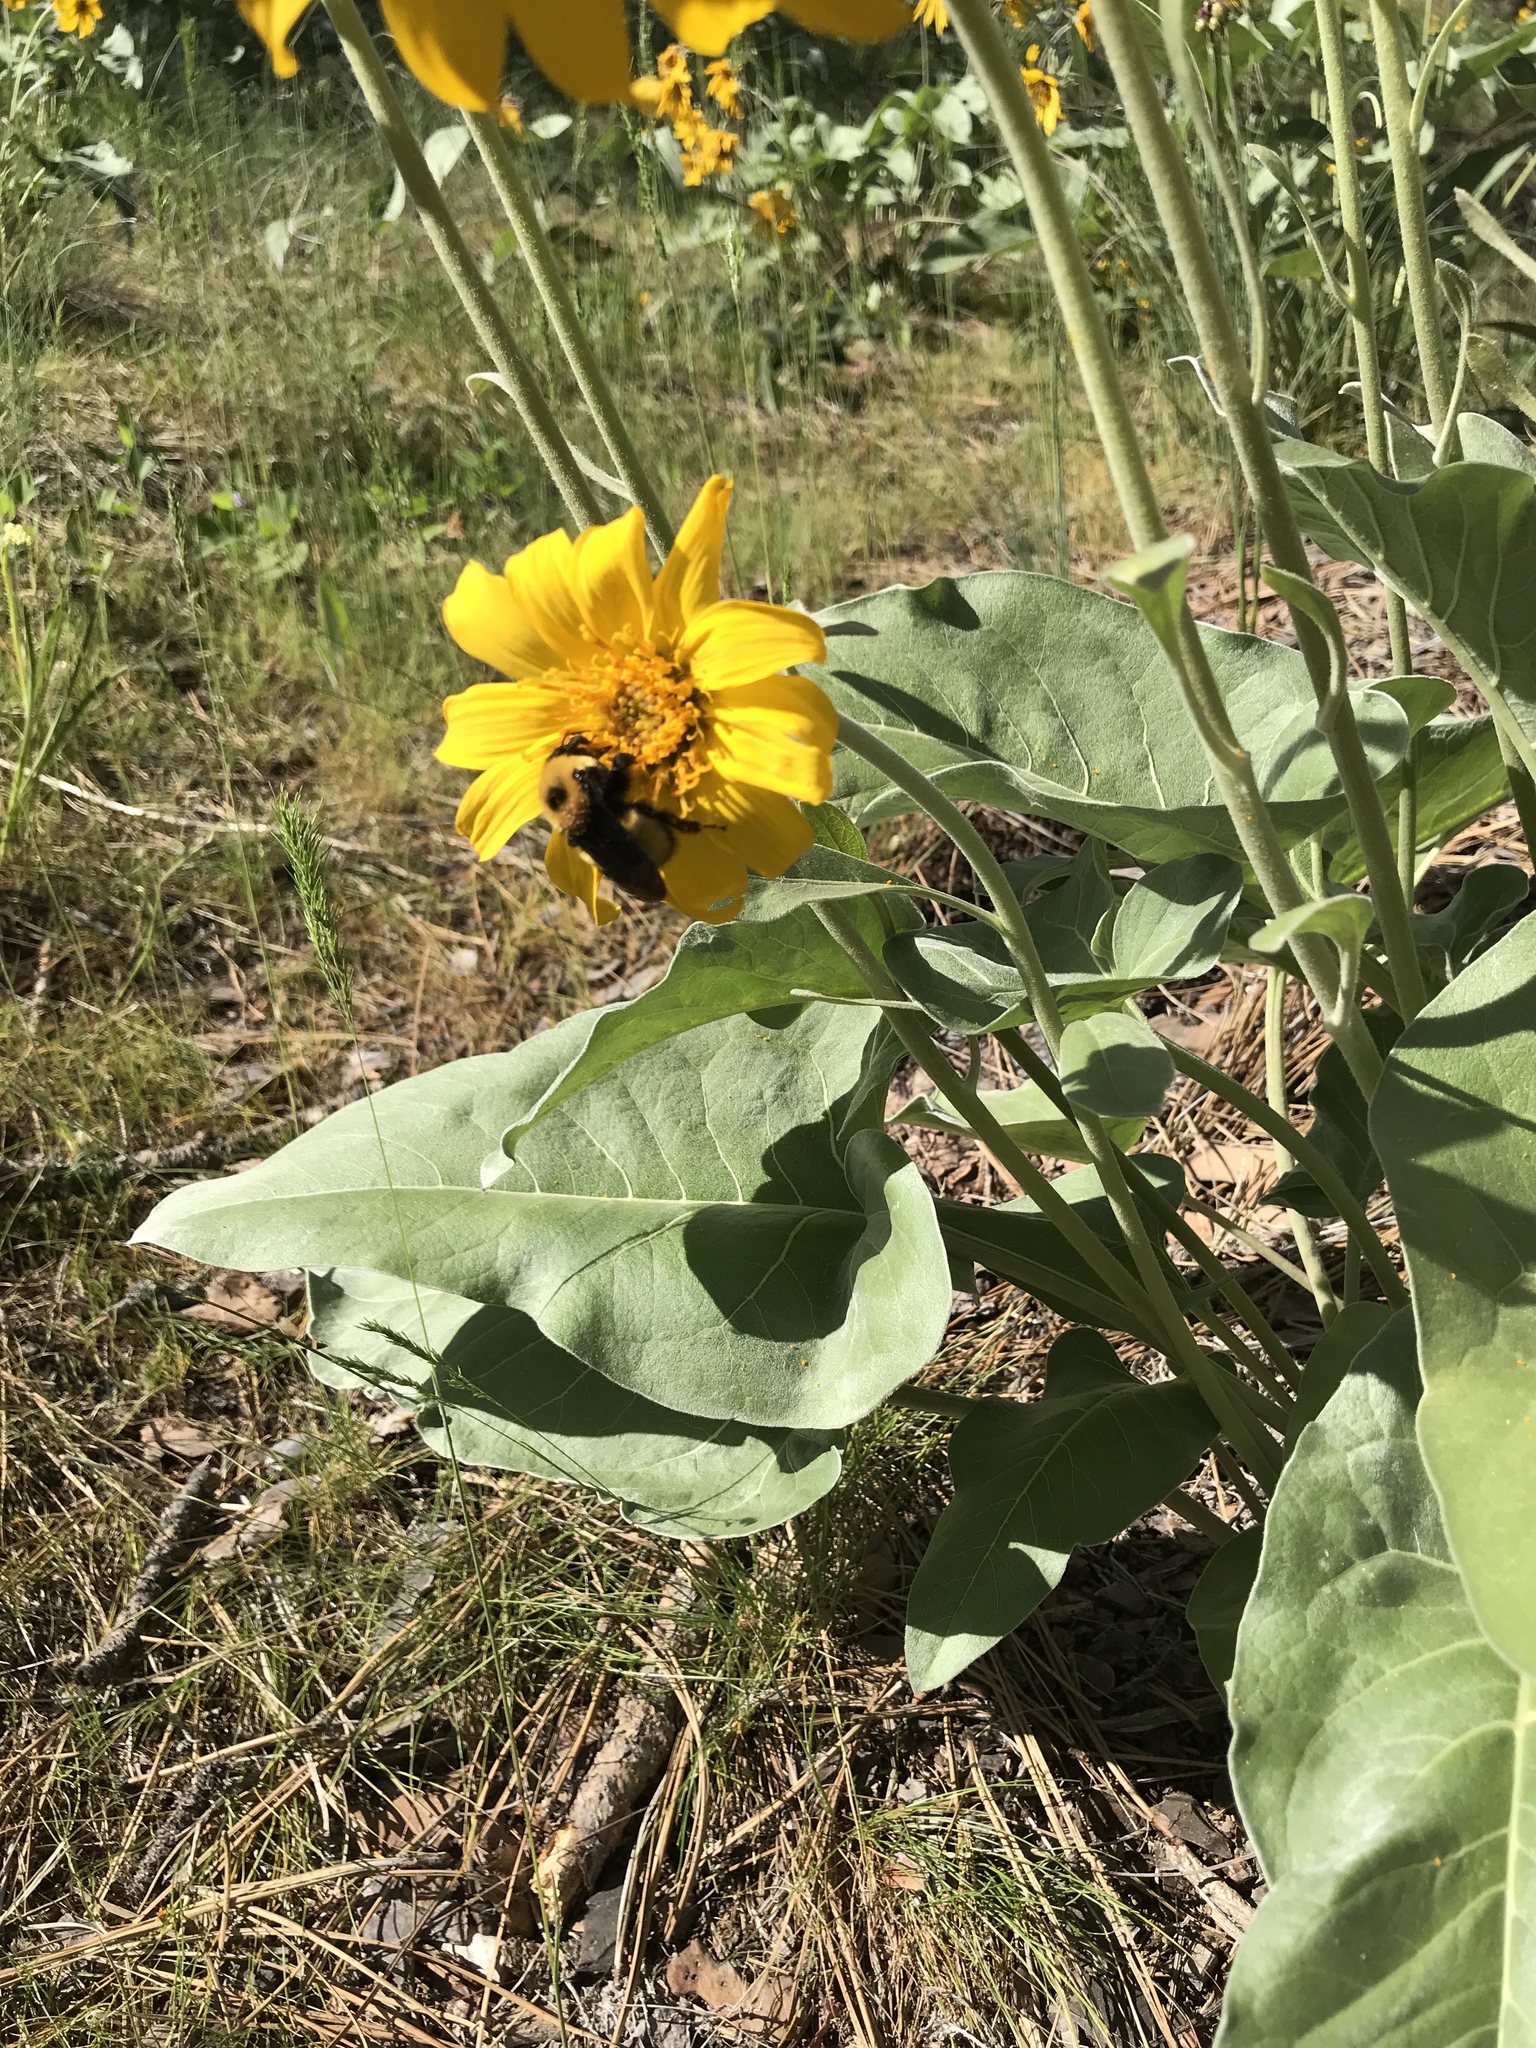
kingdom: Animalia
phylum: Arthropoda
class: Insecta
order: Hymenoptera
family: Apidae
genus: Bombus
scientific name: Bombus nevadensis
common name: Nevada bumble bee
